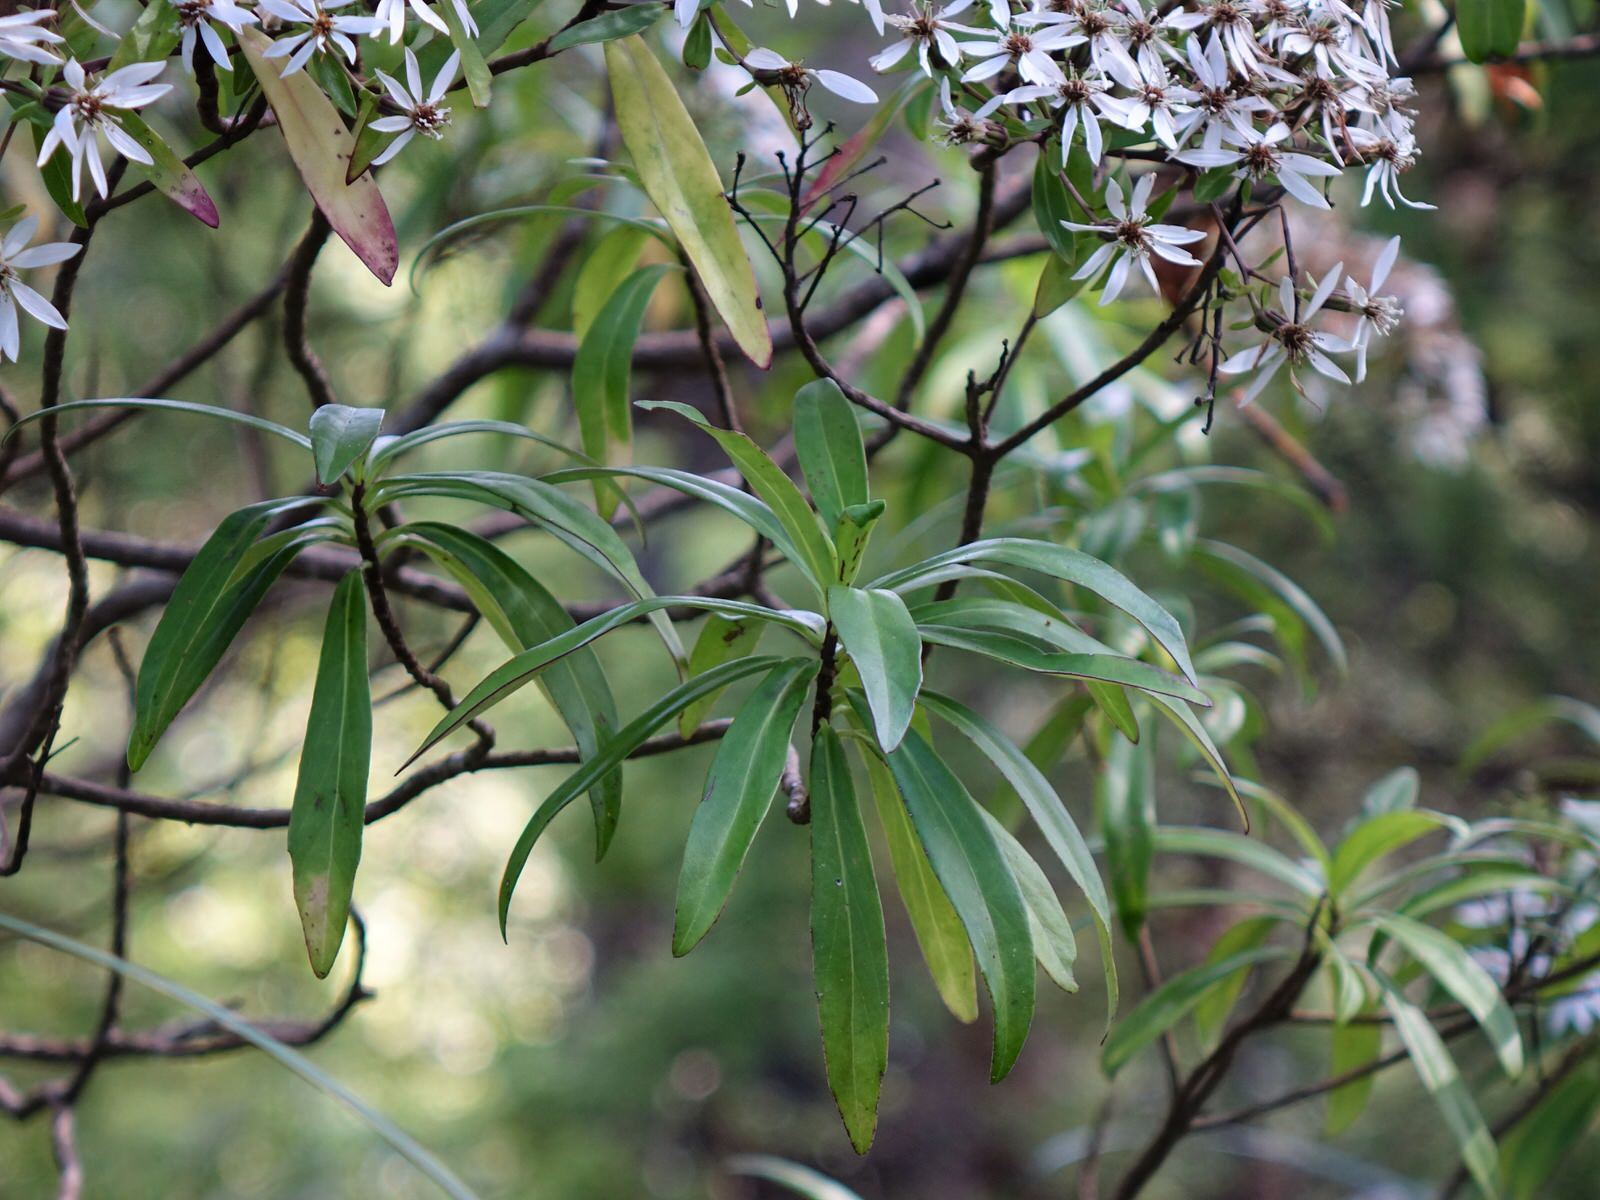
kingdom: Plantae
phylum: Tracheophyta
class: Magnoliopsida
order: Asterales
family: Asteraceae
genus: Brachyglottis
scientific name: Brachyglottis kirkii
